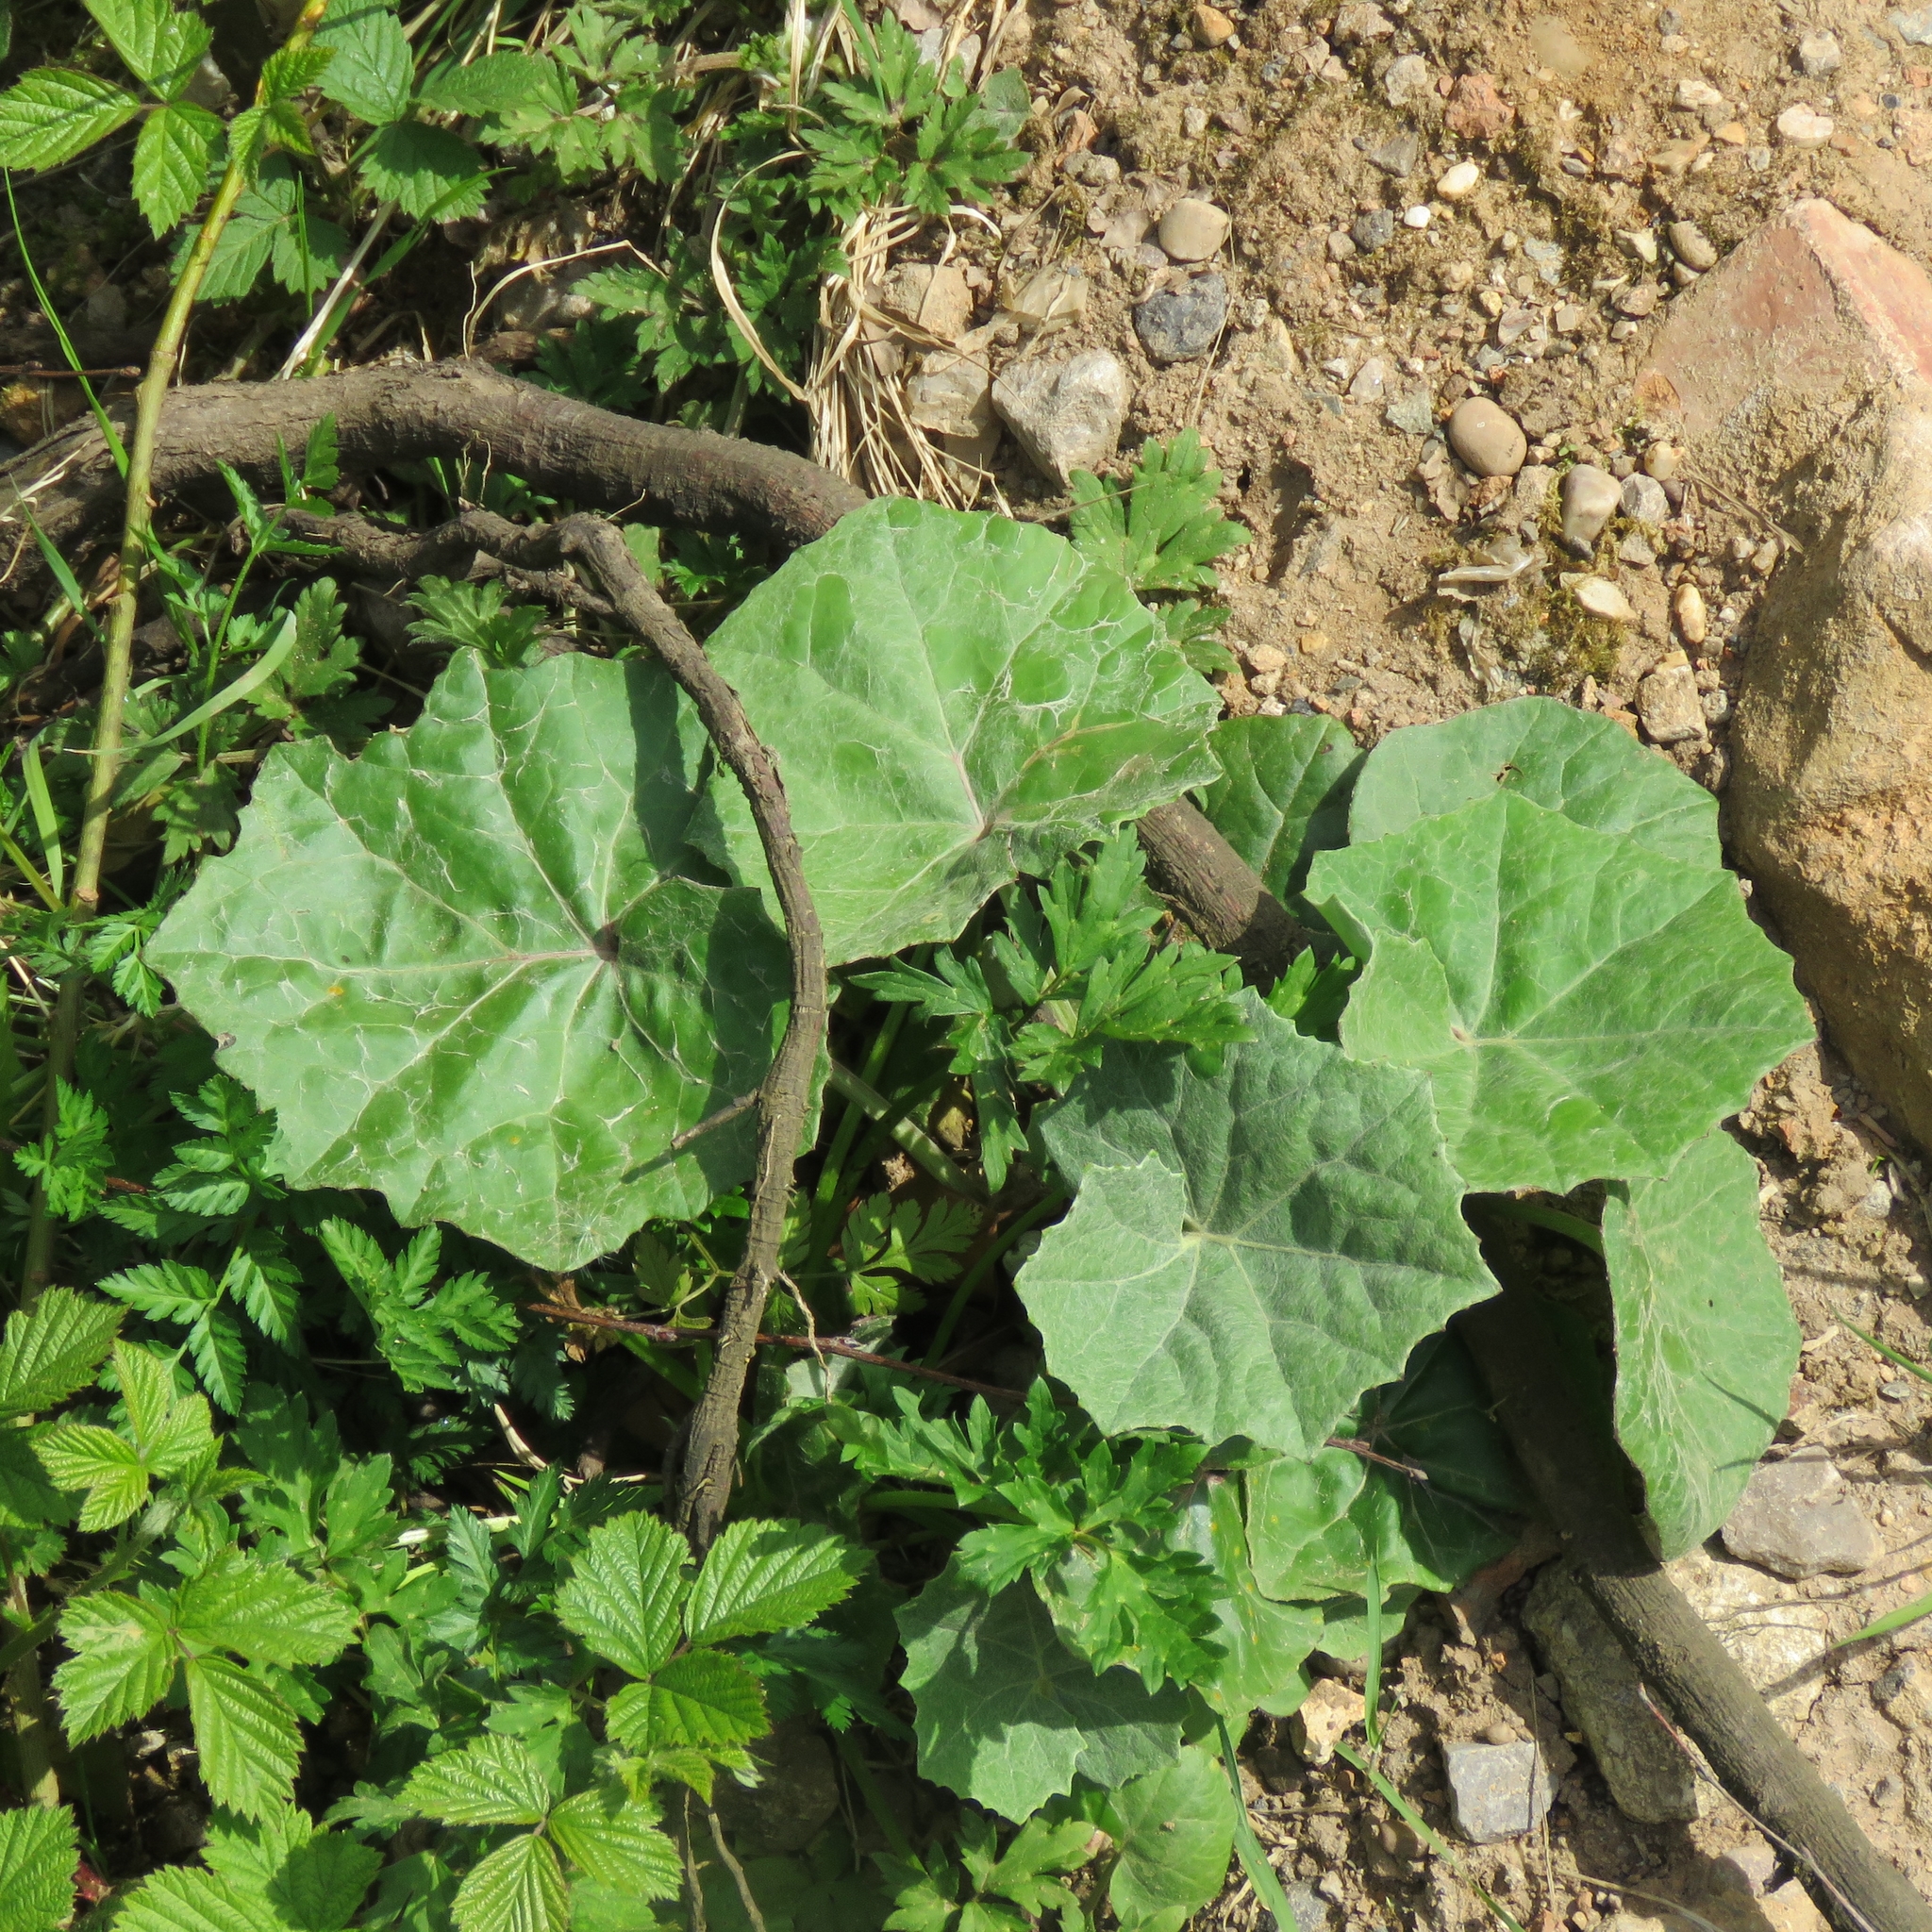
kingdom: Plantae
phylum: Tracheophyta
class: Magnoliopsida
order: Asterales
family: Asteraceae
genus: Tussilago
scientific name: Tussilago farfara
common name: Coltsfoot
